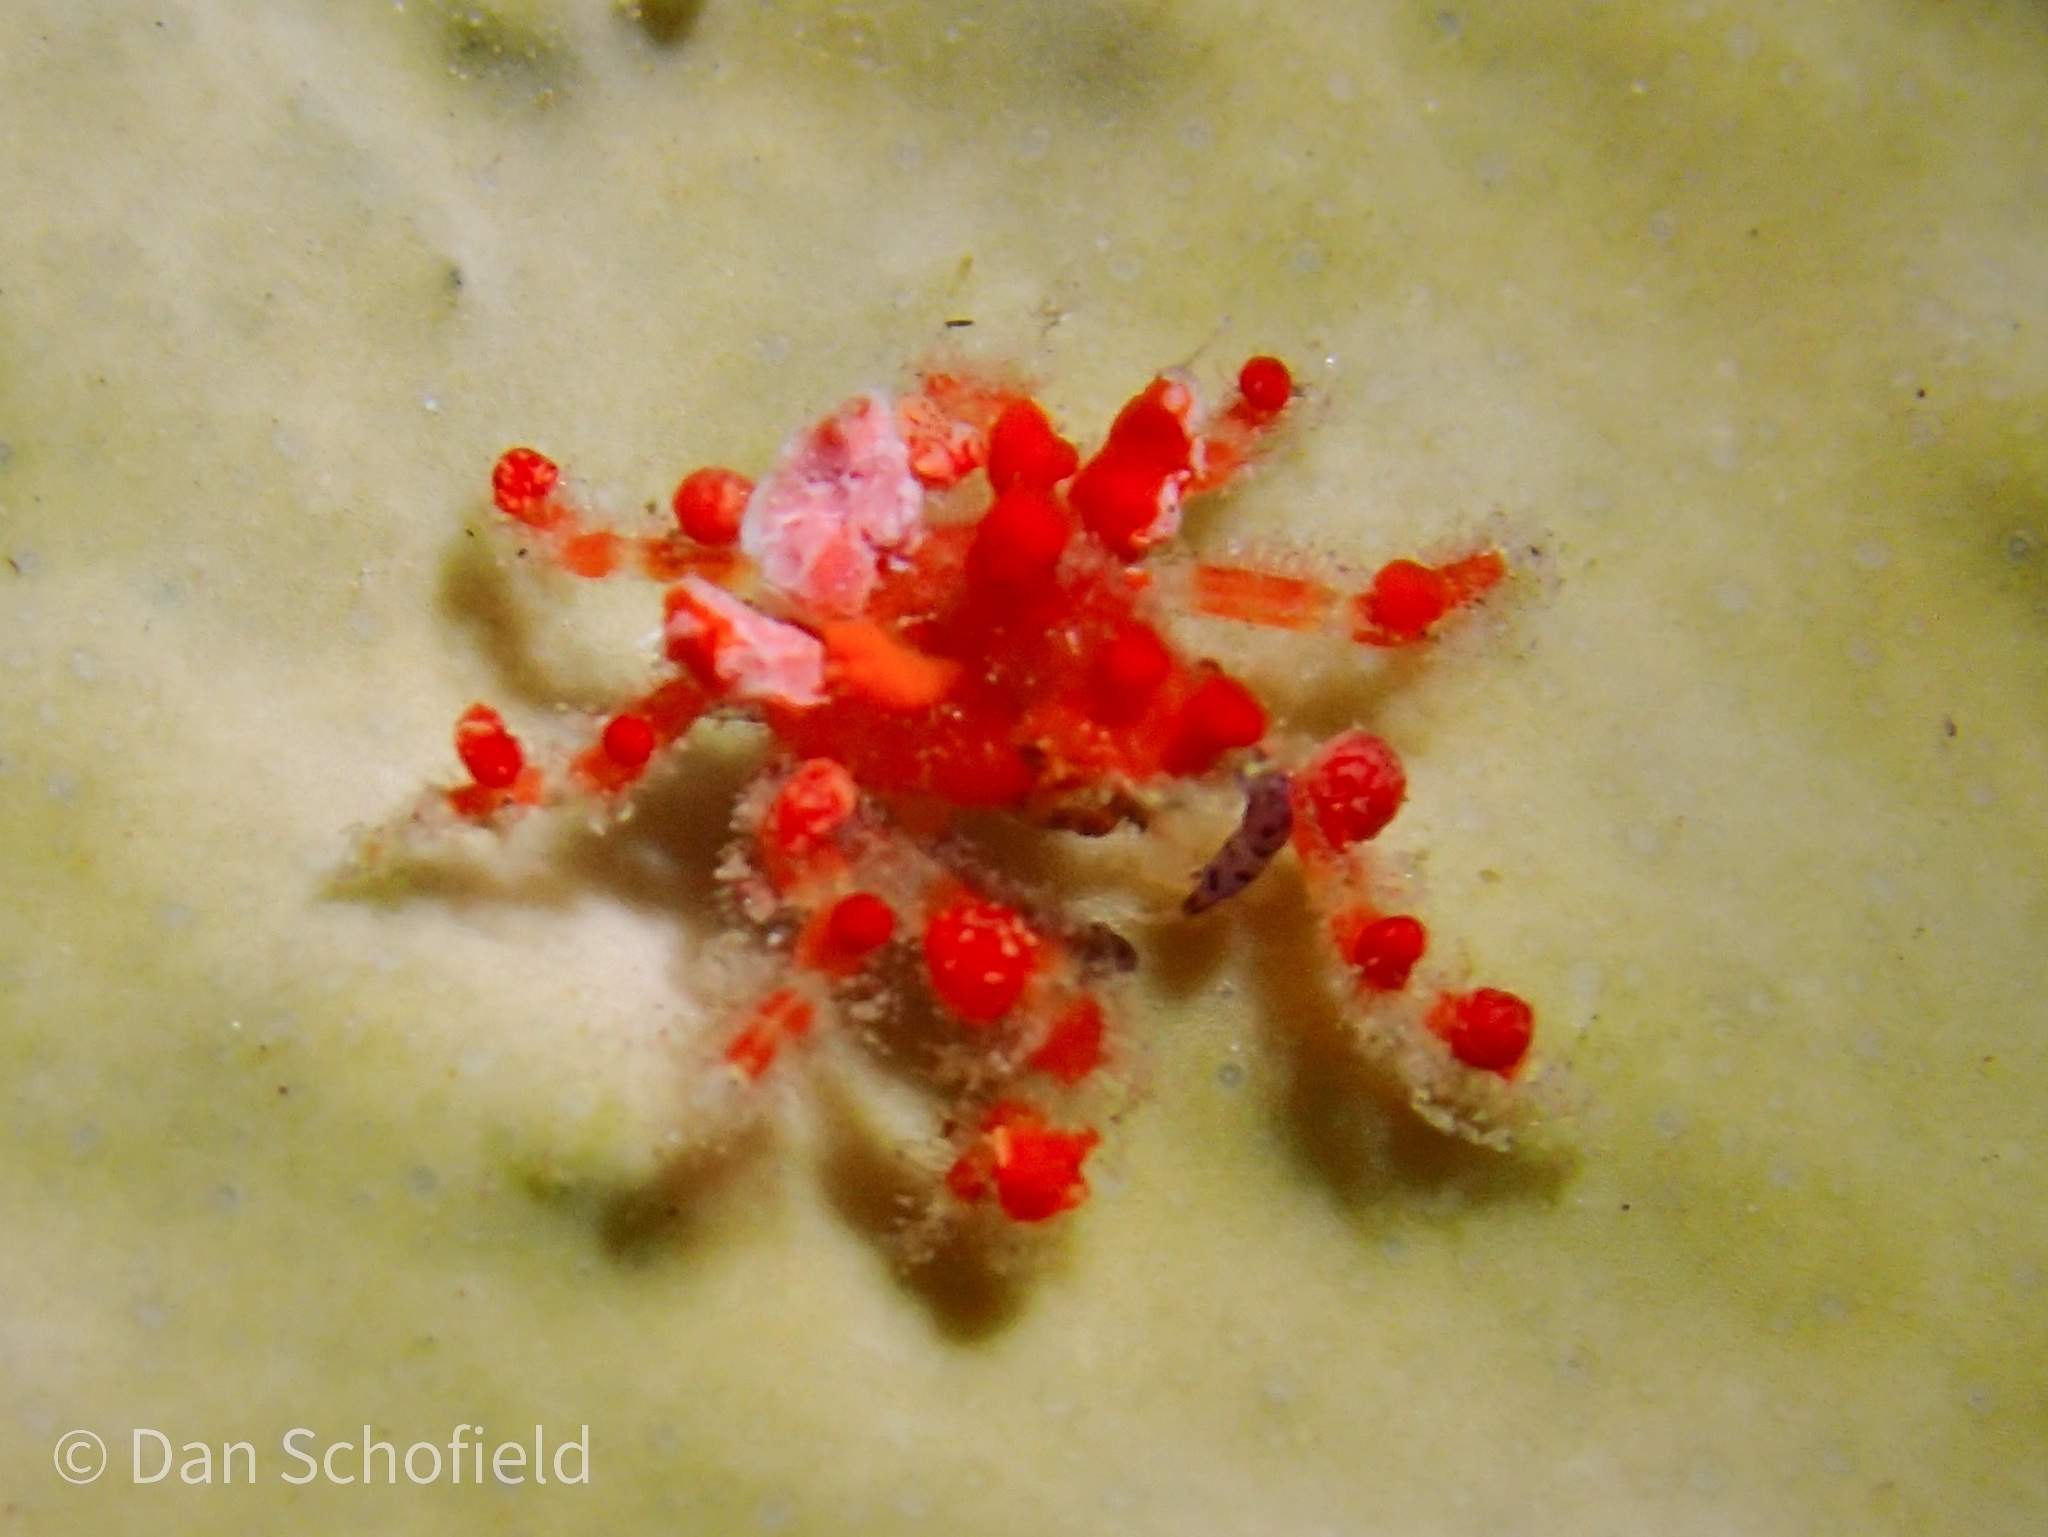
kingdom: Animalia
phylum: Arthropoda
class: Malacostraca
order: Decapoda
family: Epialtidae
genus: Pelia
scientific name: Pelia mutica
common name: Cryptic teardrop crab
